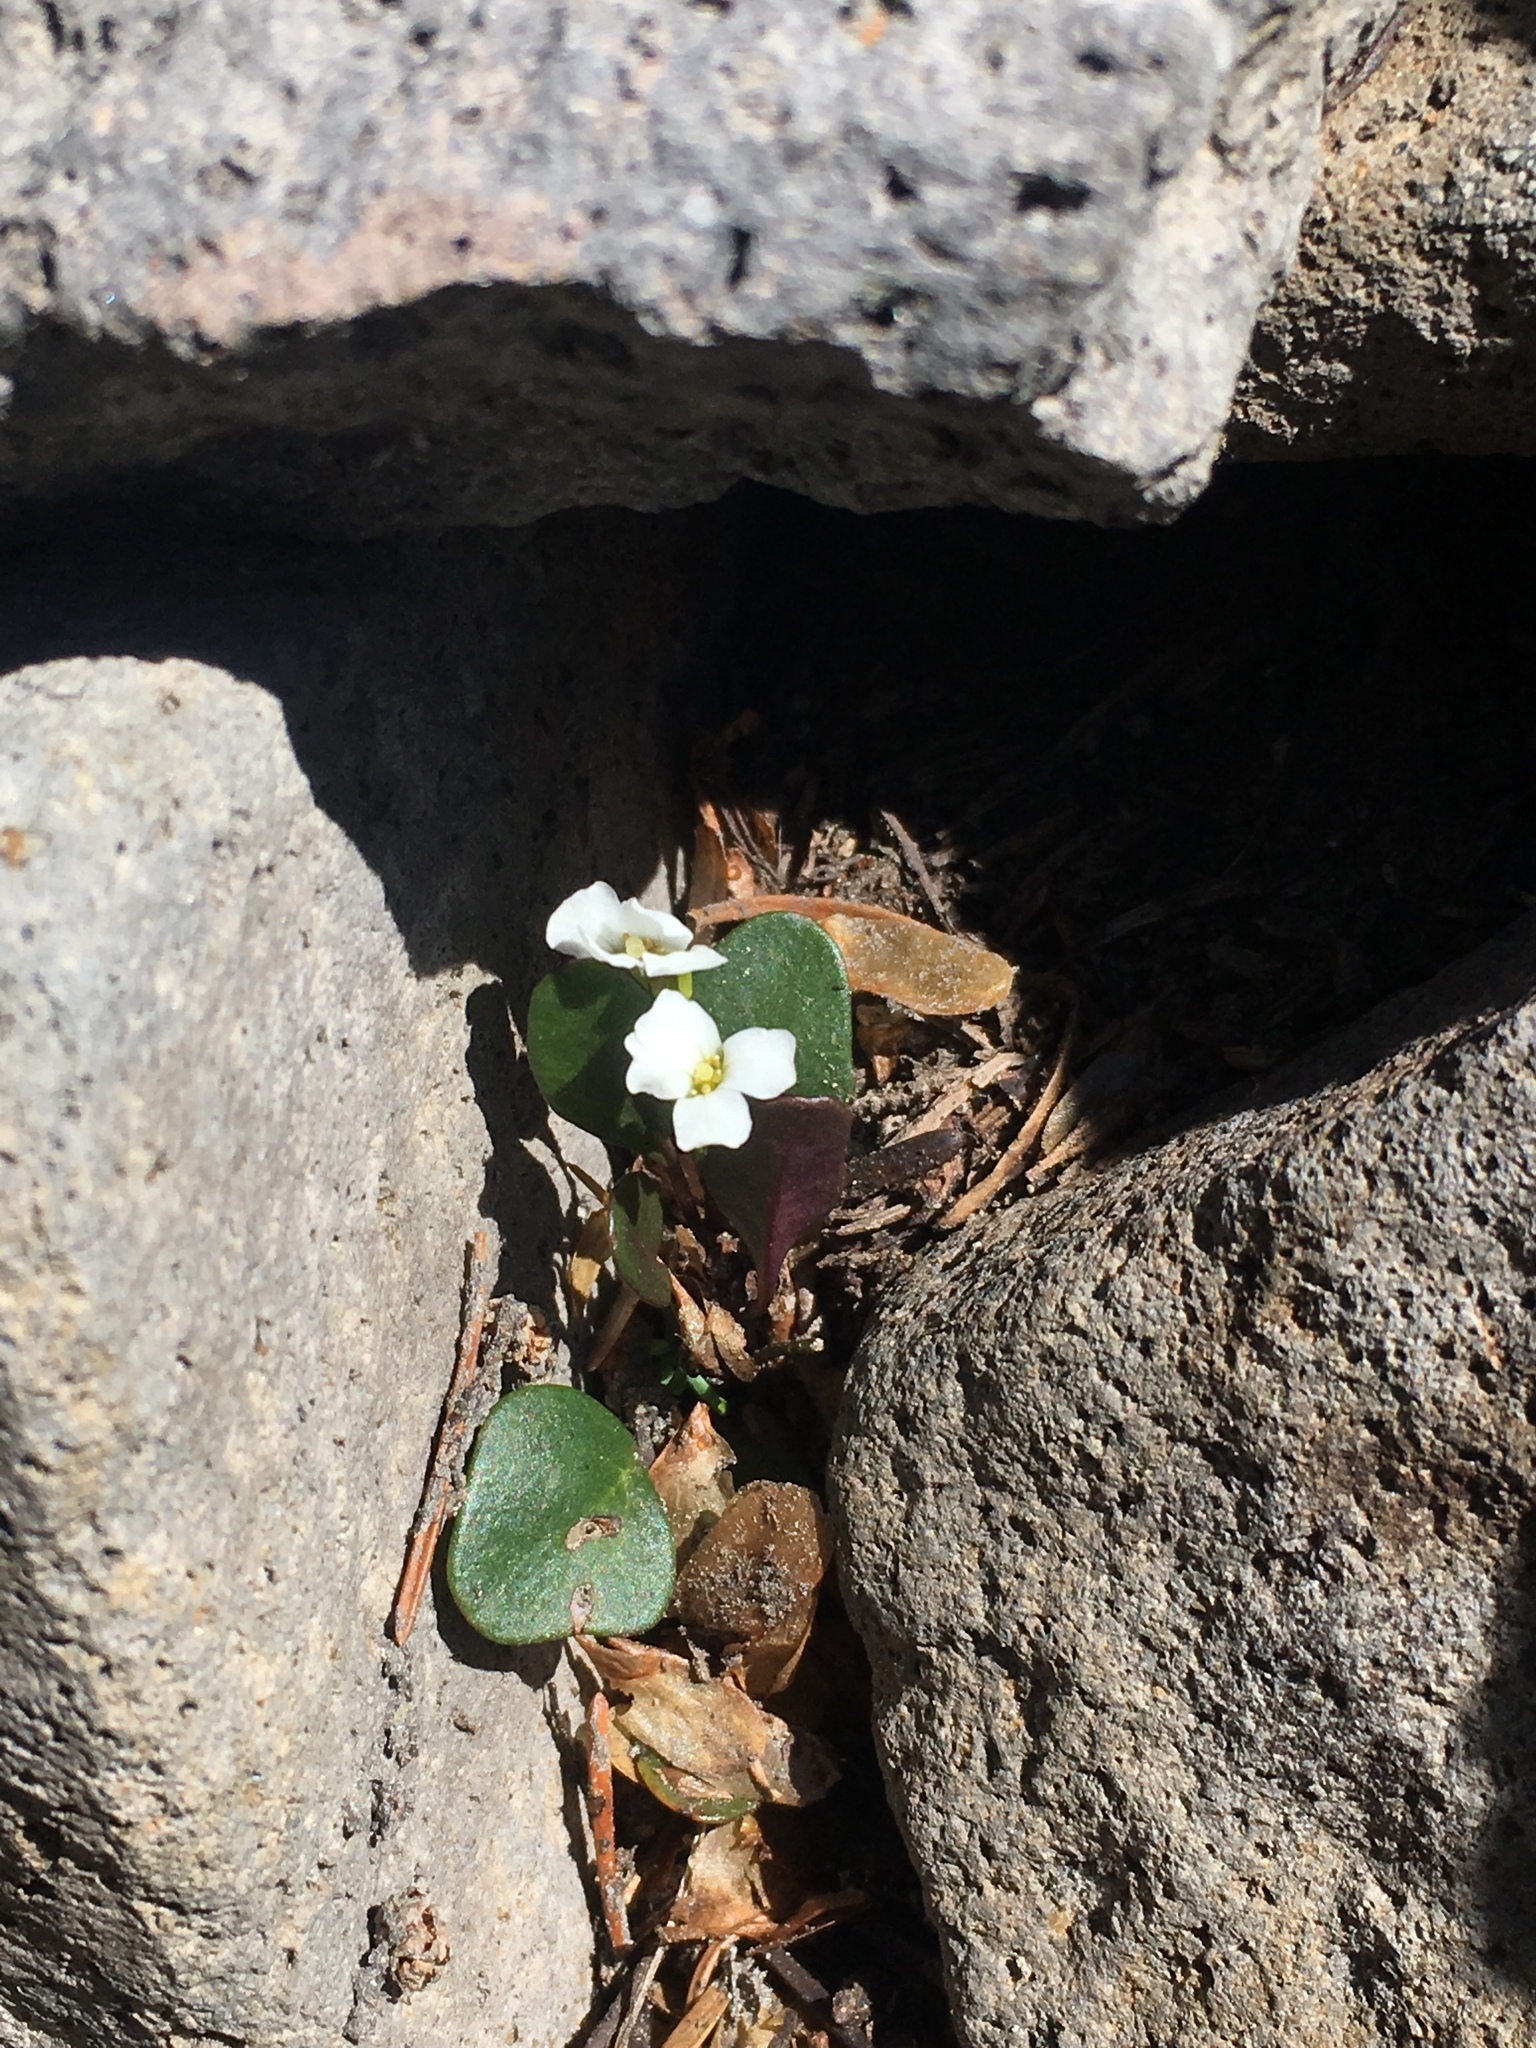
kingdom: Plantae
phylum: Tracheophyta
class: Magnoliopsida
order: Brassicales
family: Brassicaceae
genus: Cardamine
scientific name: Cardamine bellidifolia
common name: Alpine bittercress
